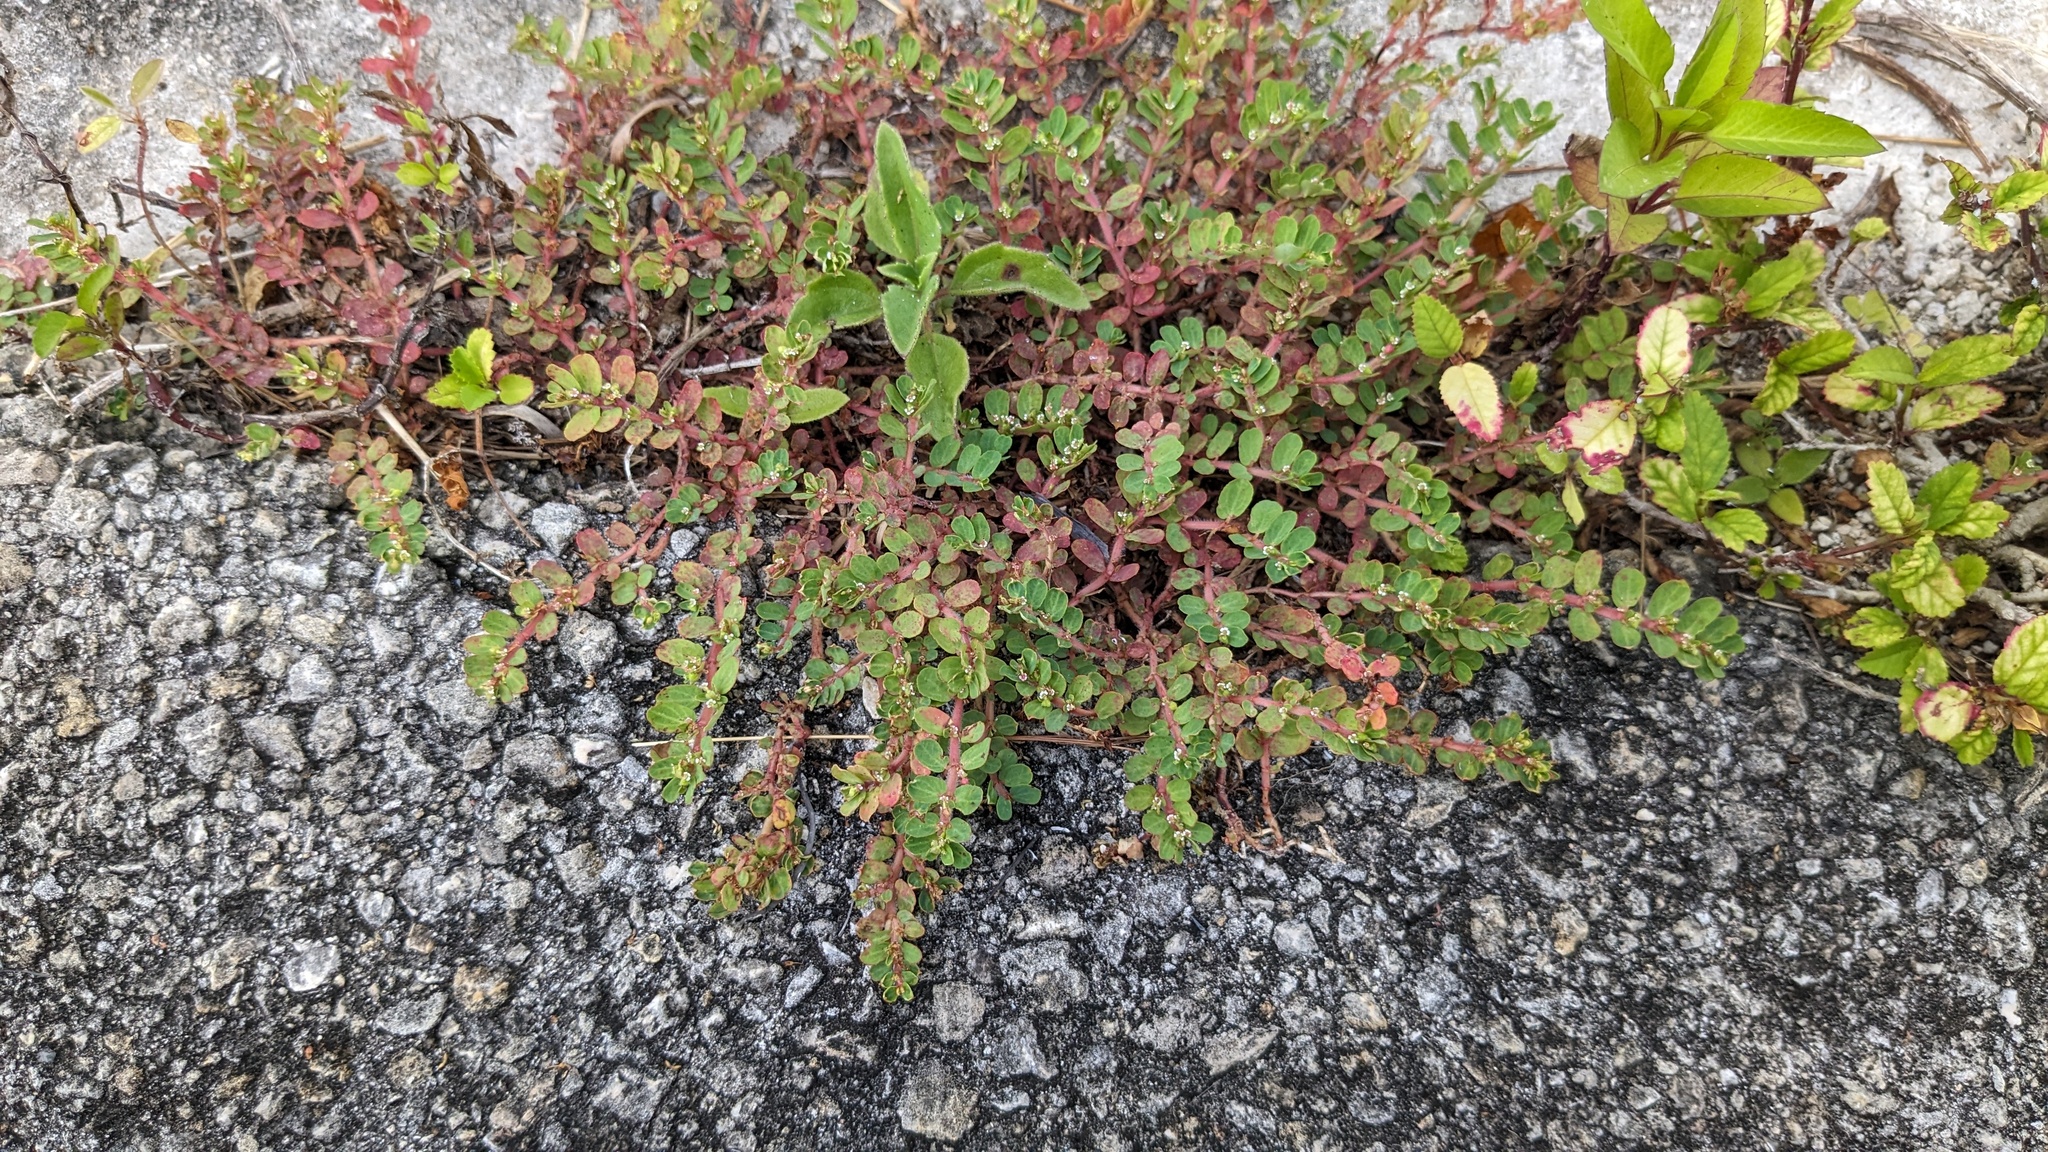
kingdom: Plantae
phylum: Tracheophyta
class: Magnoliopsida
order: Malpighiales
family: Euphorbiaceae
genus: Euphorbia
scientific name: Euphorbia mendezii
